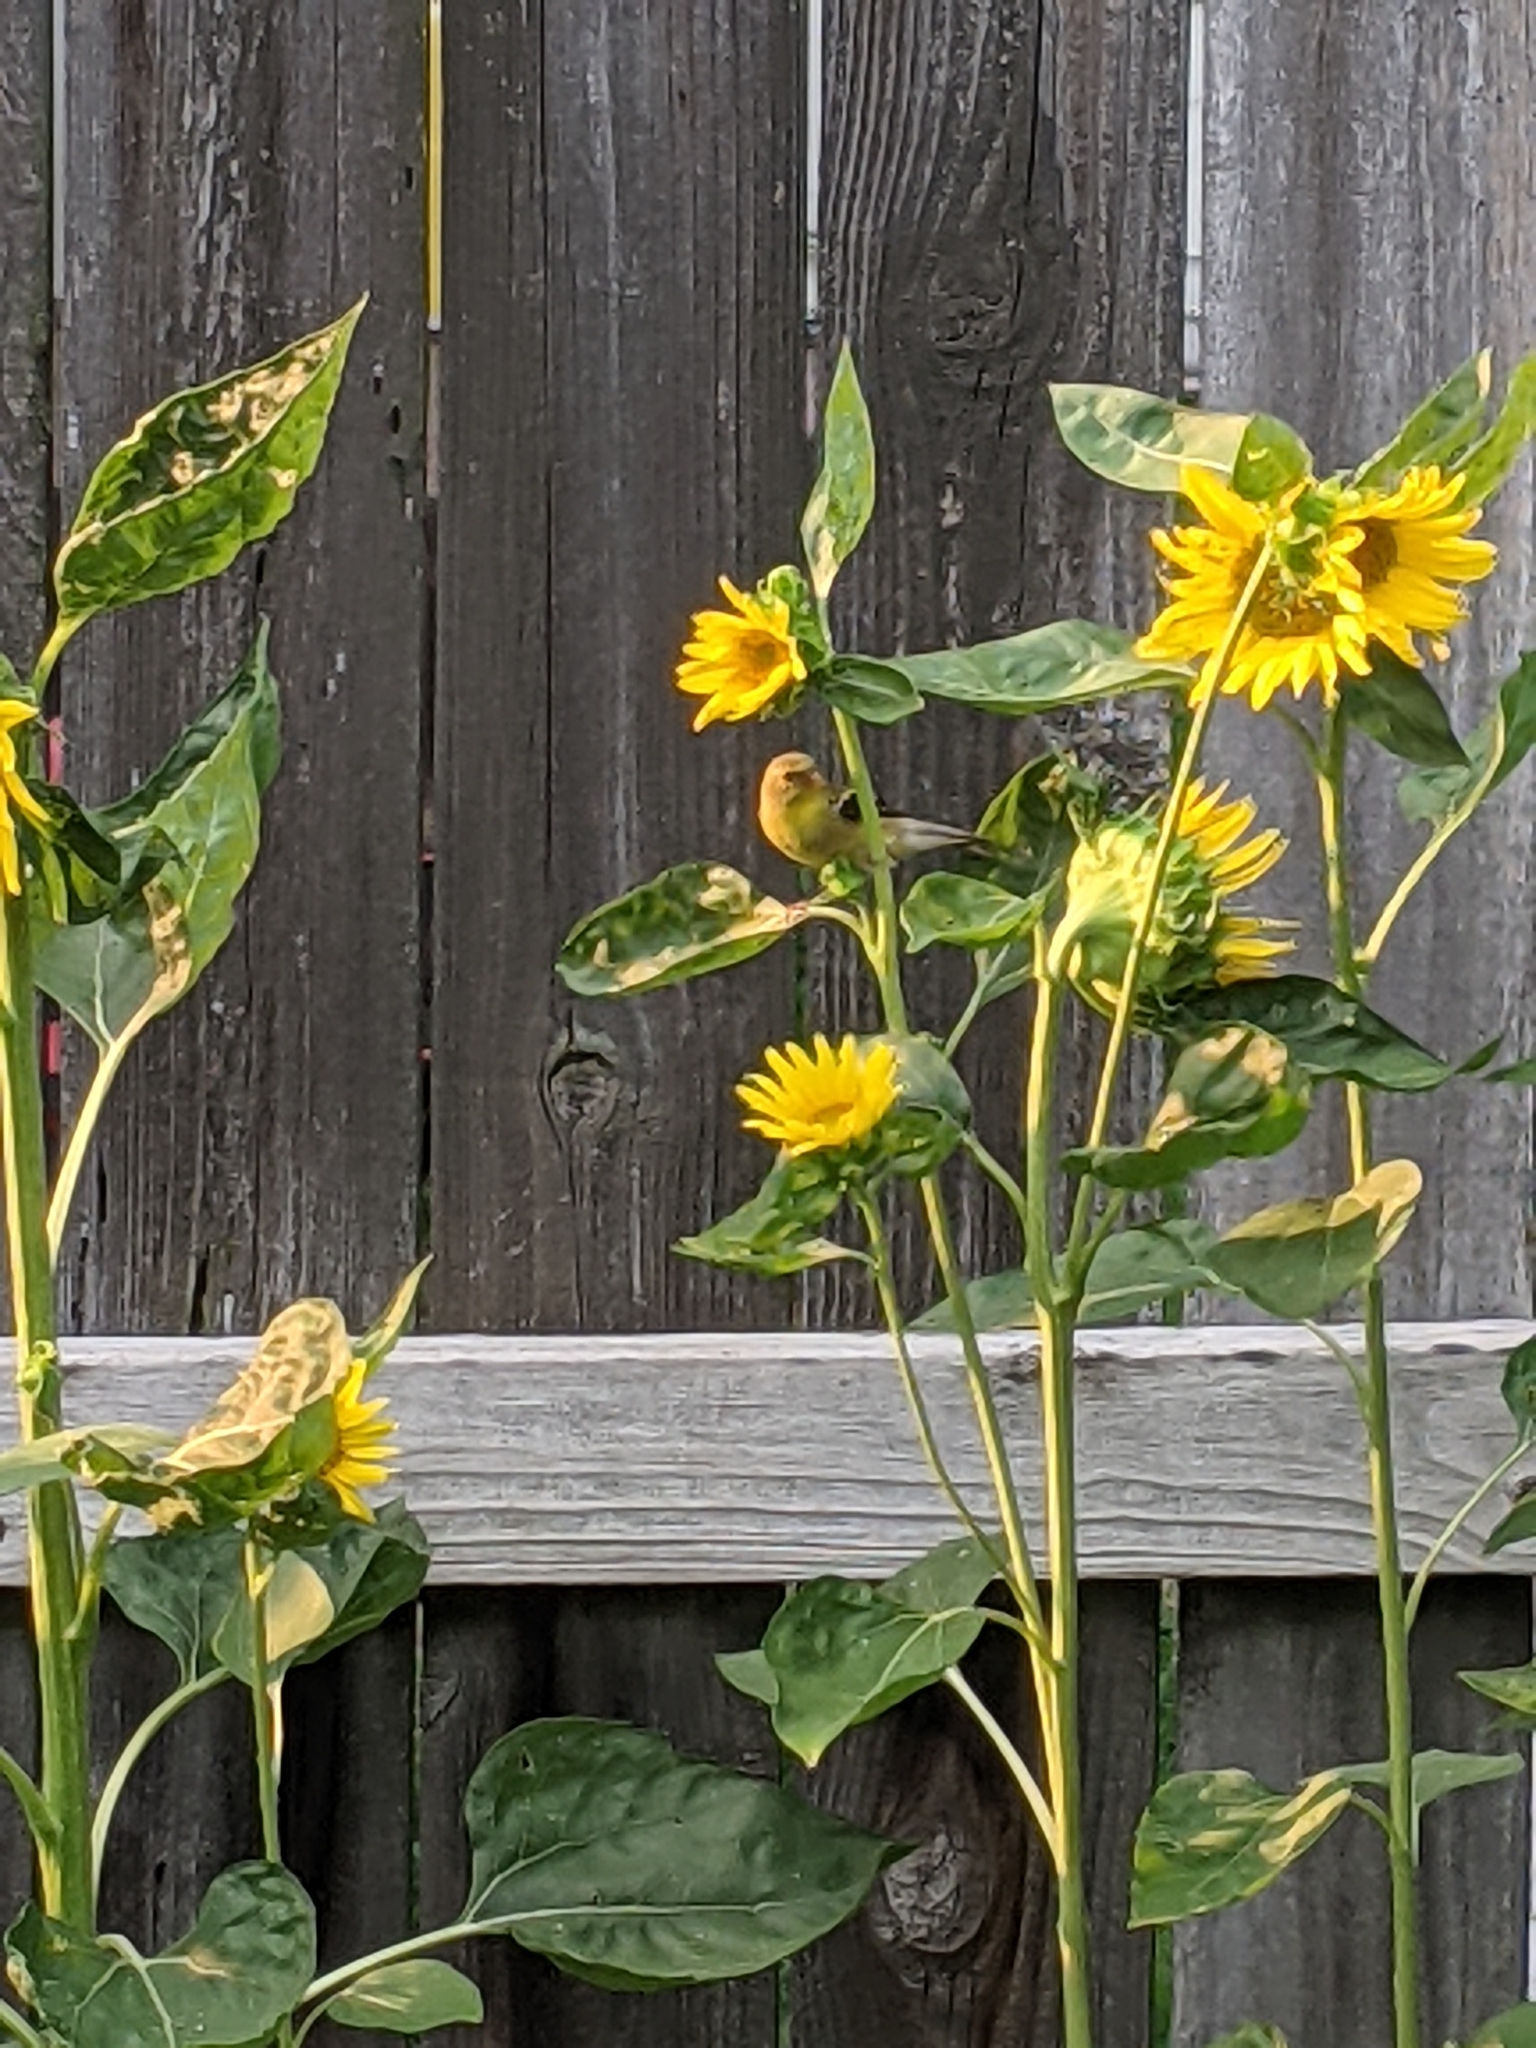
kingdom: Animalia
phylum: Chordata
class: Aves
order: Passeriformes
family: Fringillidae
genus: Spinus
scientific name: Spinus tristis
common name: American goldfinch
